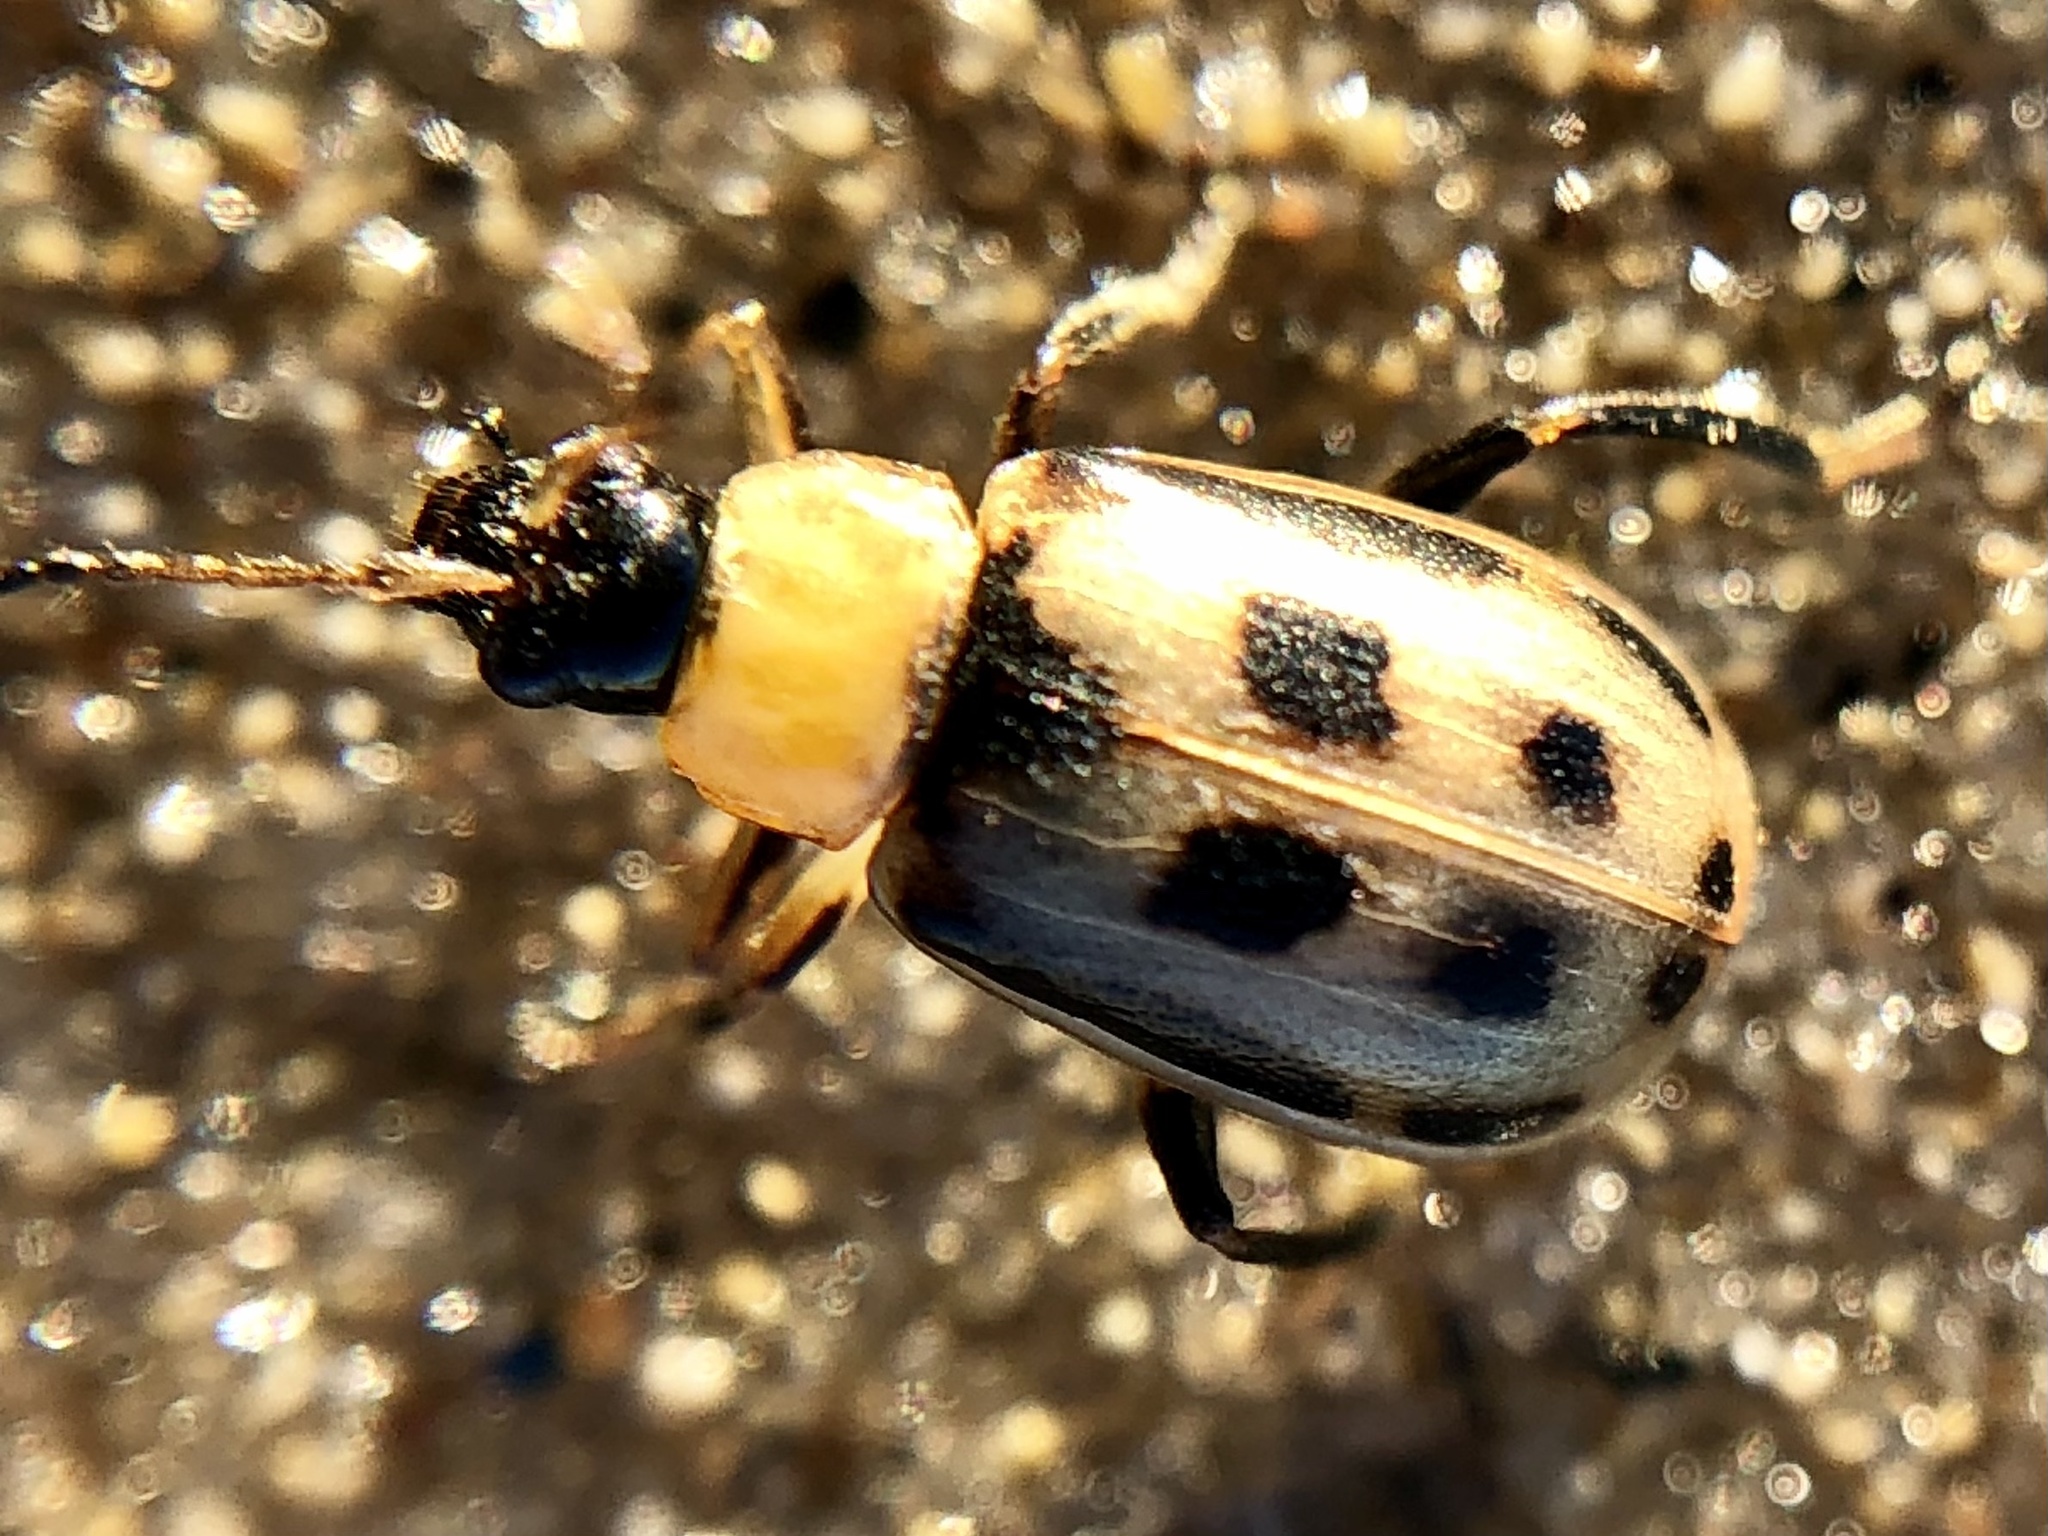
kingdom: Animalia
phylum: Arthropoda
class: Insecta
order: Coleoptera
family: Chrysomelidae
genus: Cerotoma
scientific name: Cerotoma trifurcata
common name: Bean leaf beetle
